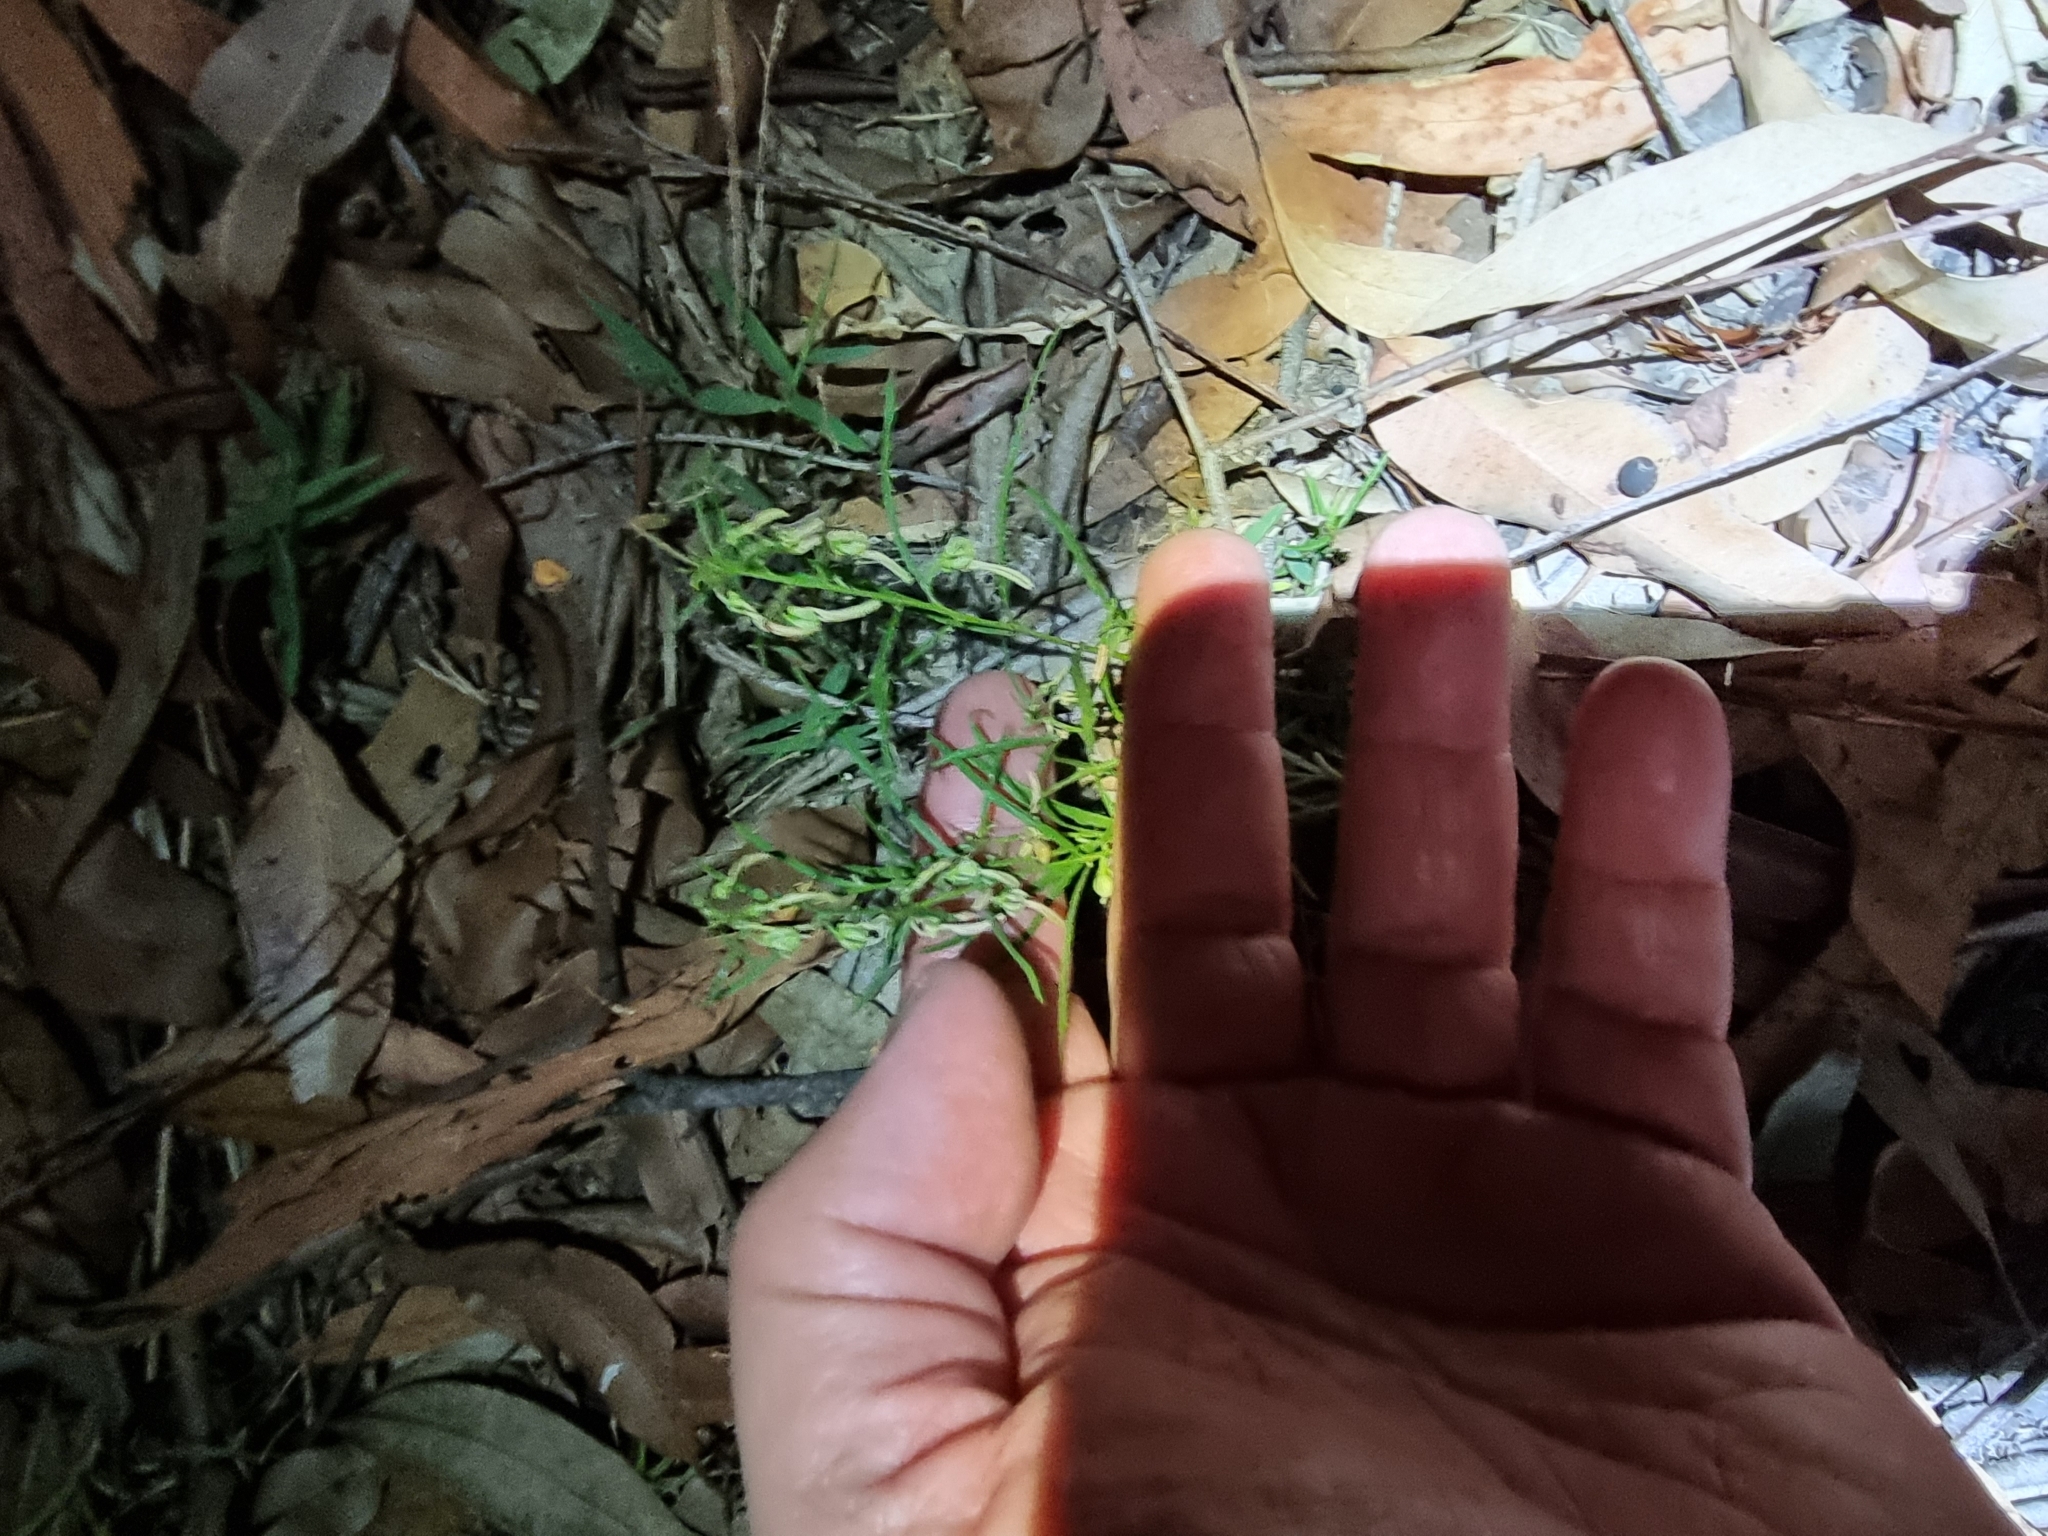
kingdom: Plantae
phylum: Tracheophyta
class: Magnoliopsida
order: Malpighiales
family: Violaceae
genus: Pigea
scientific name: Pigea stellarioides
